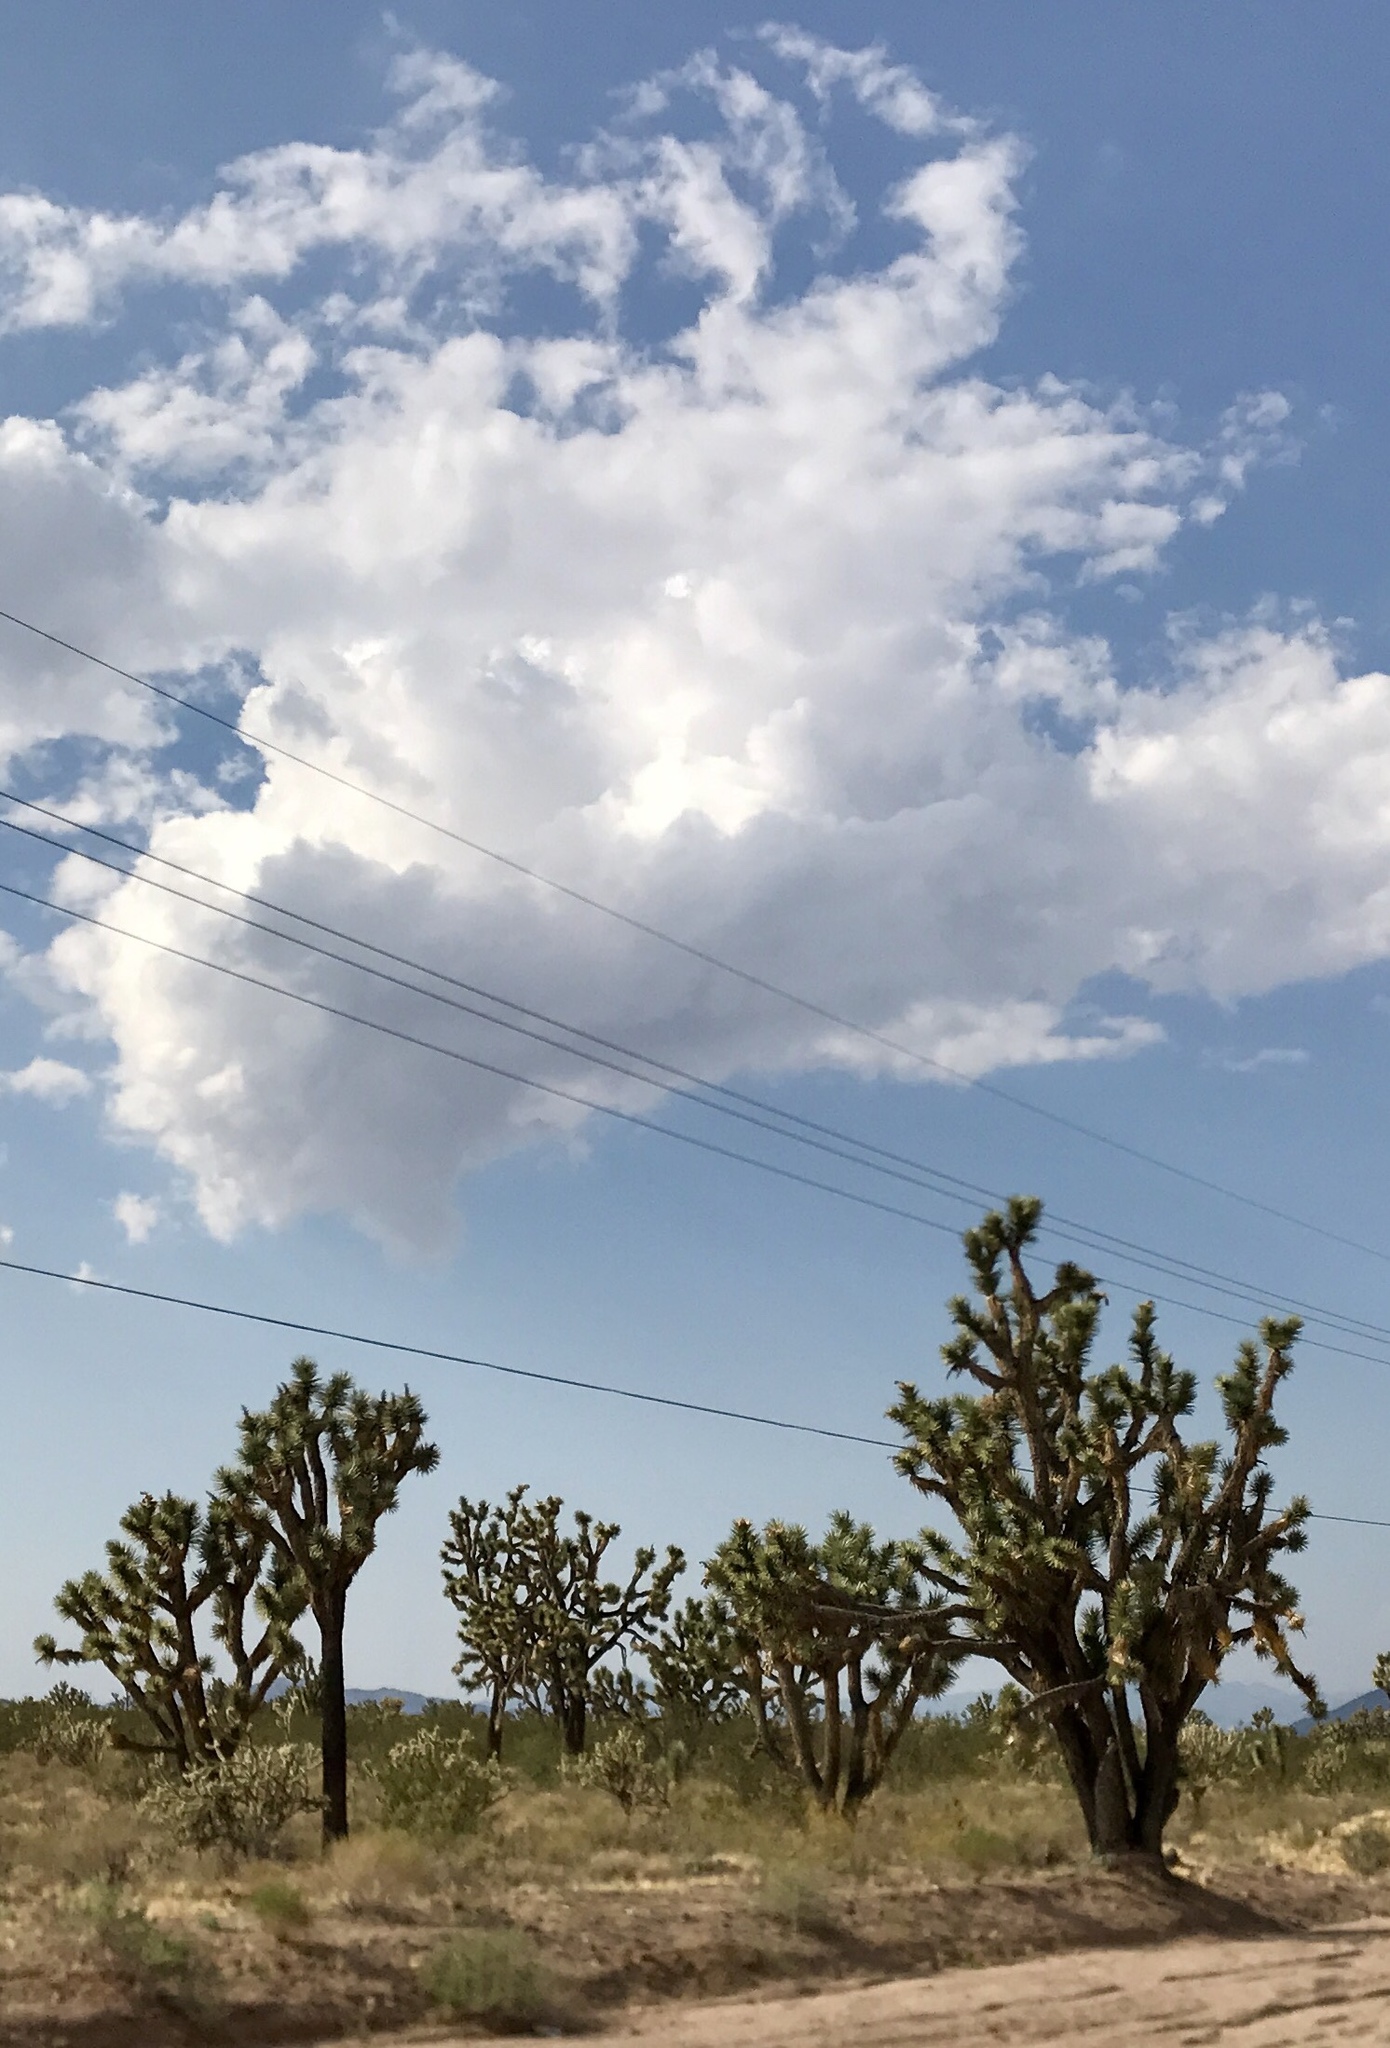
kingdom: Plantae
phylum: Tracheophyta
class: Liliopsida
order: Asparagales
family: Asparagaceae
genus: Yucca
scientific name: Yucca brevifolia
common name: Joshua tree
